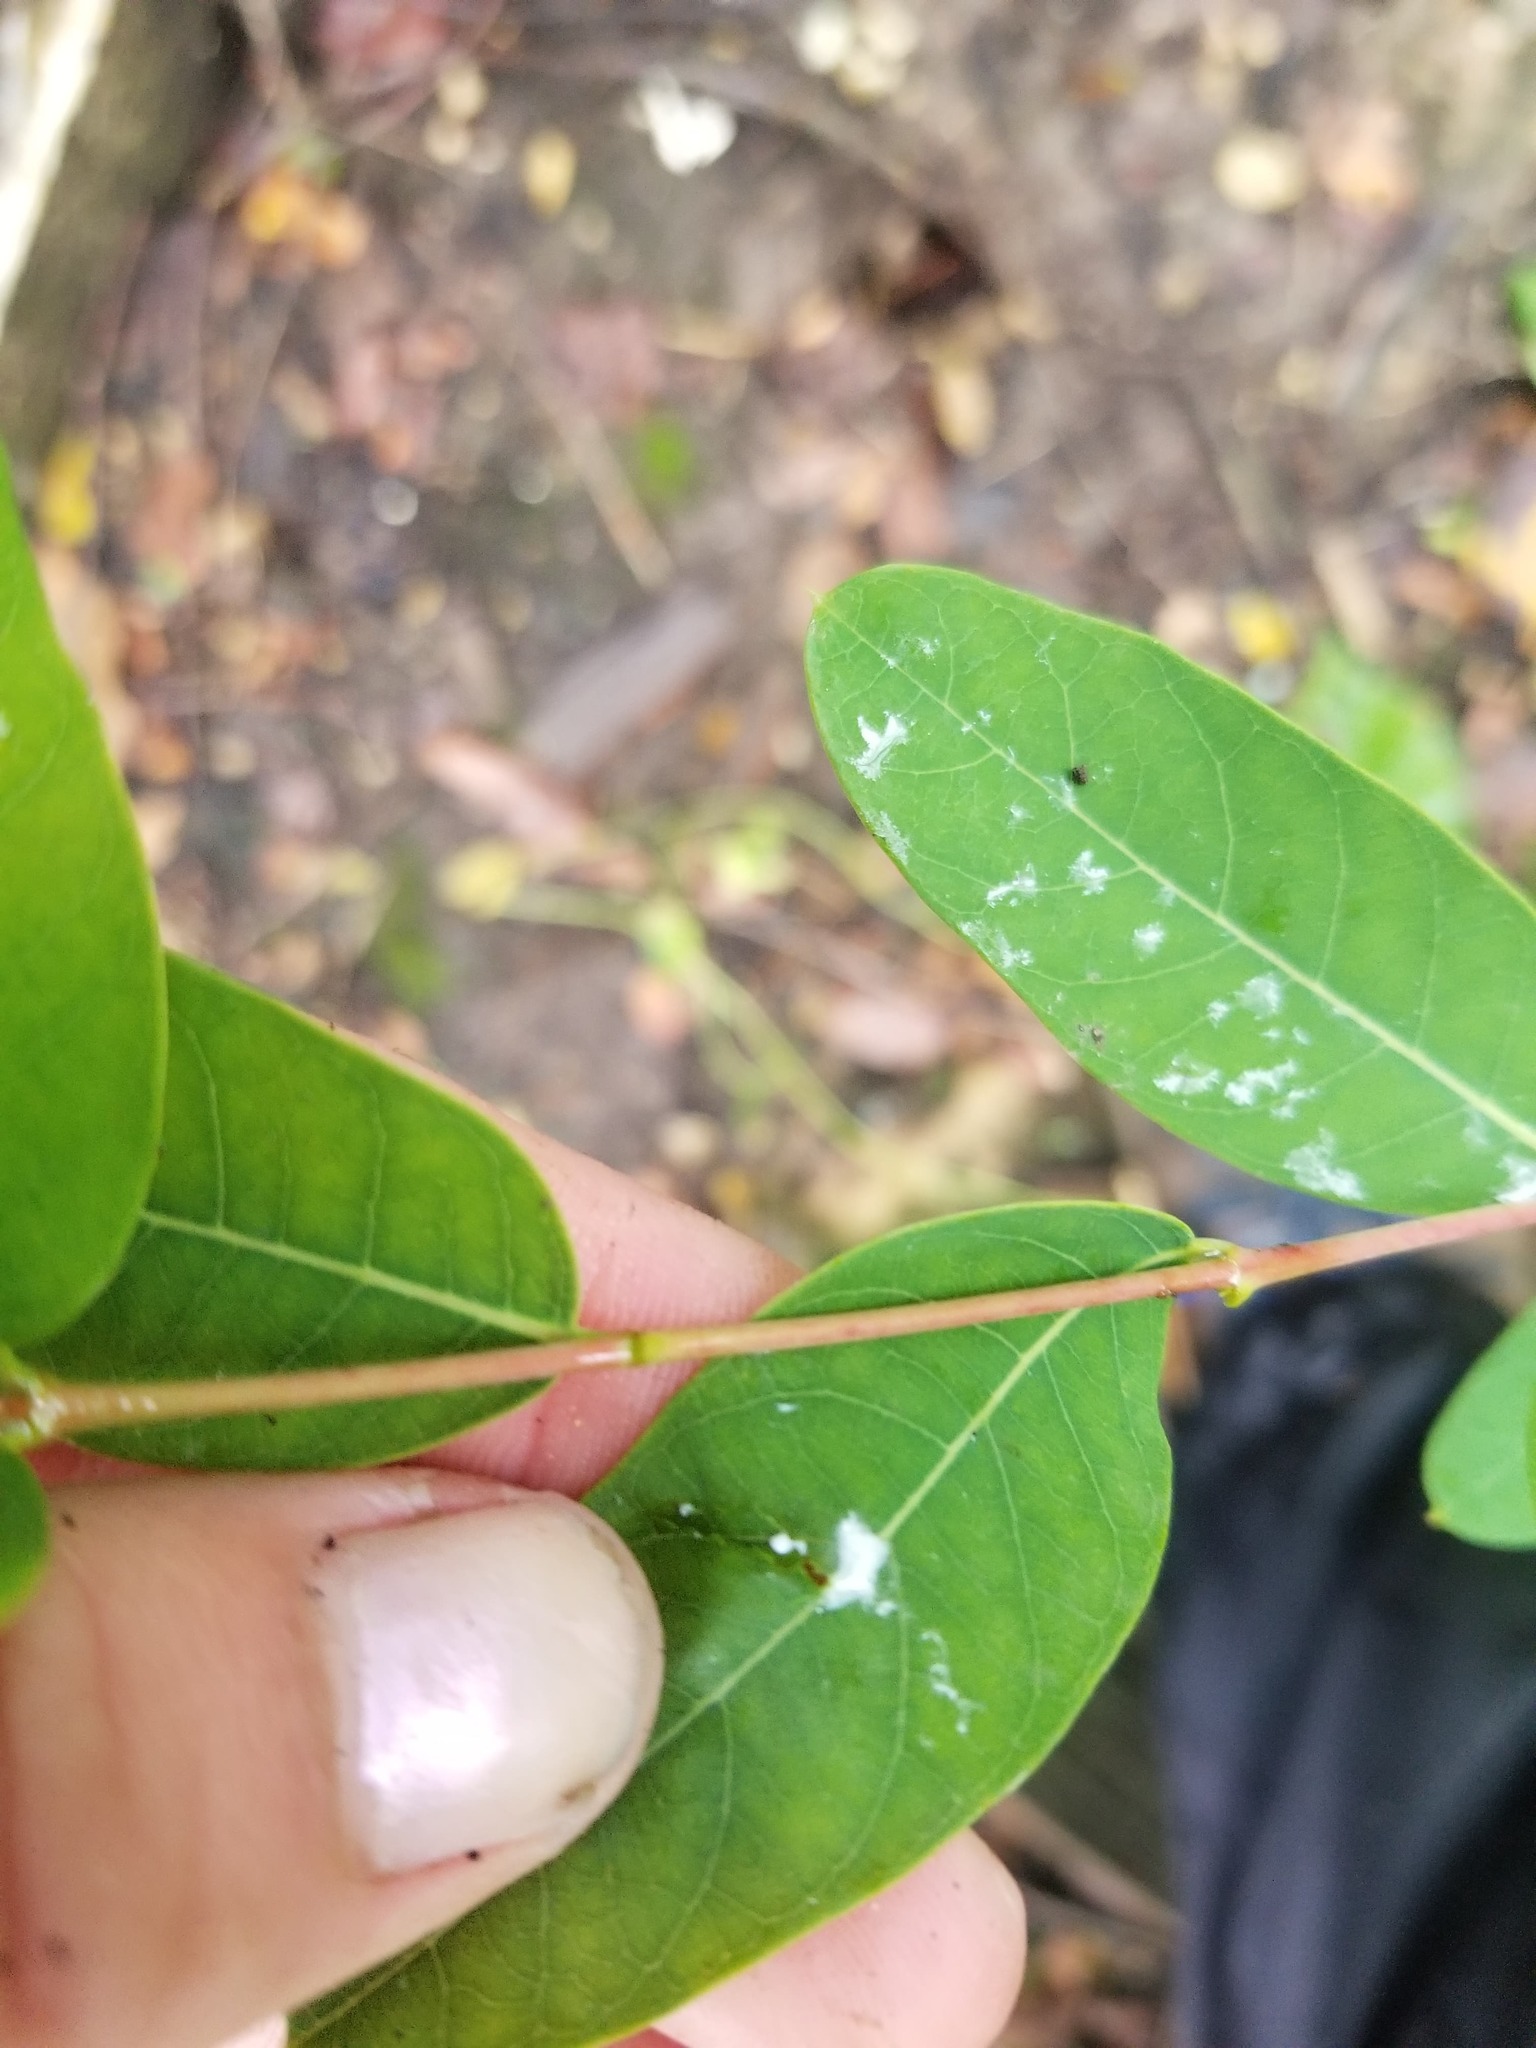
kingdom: Plantae
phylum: Tracheophyta
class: Magnoliopsida
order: Gentianales
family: Apocynaceae
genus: Apocynum
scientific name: Apocynum cannabinum
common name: Hemp dogbane
